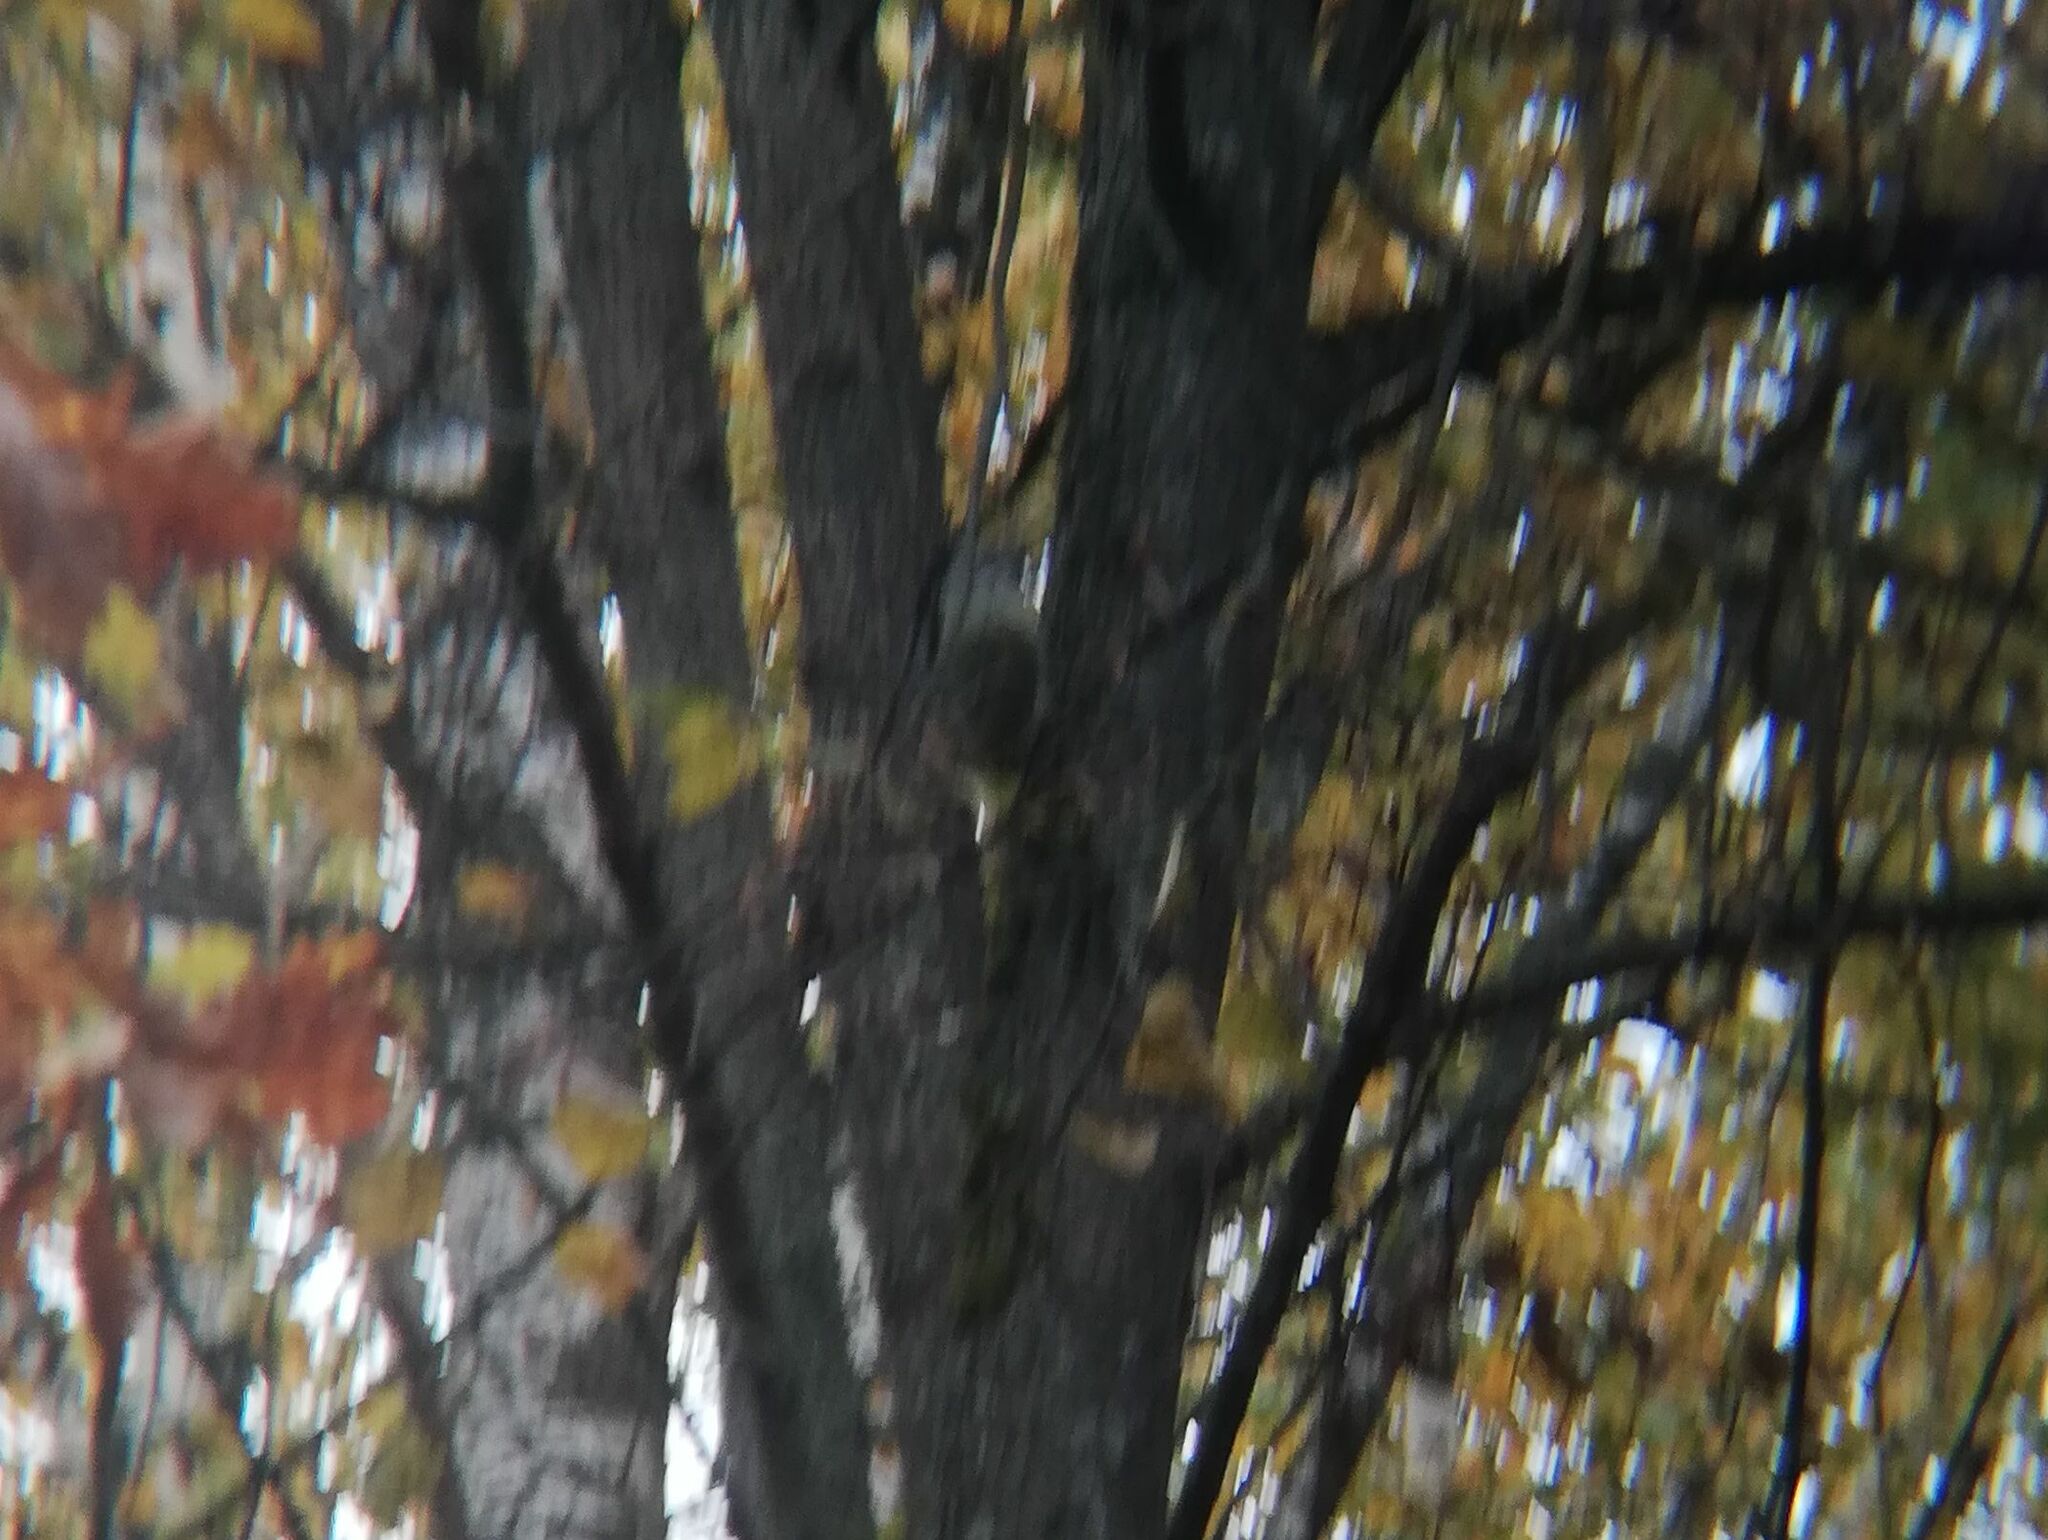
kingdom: Animalia
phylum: Chordata
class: Aves
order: Piciformes
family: Picidae
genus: Picus
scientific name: Picus canus
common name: Grey-headed woodpecker
